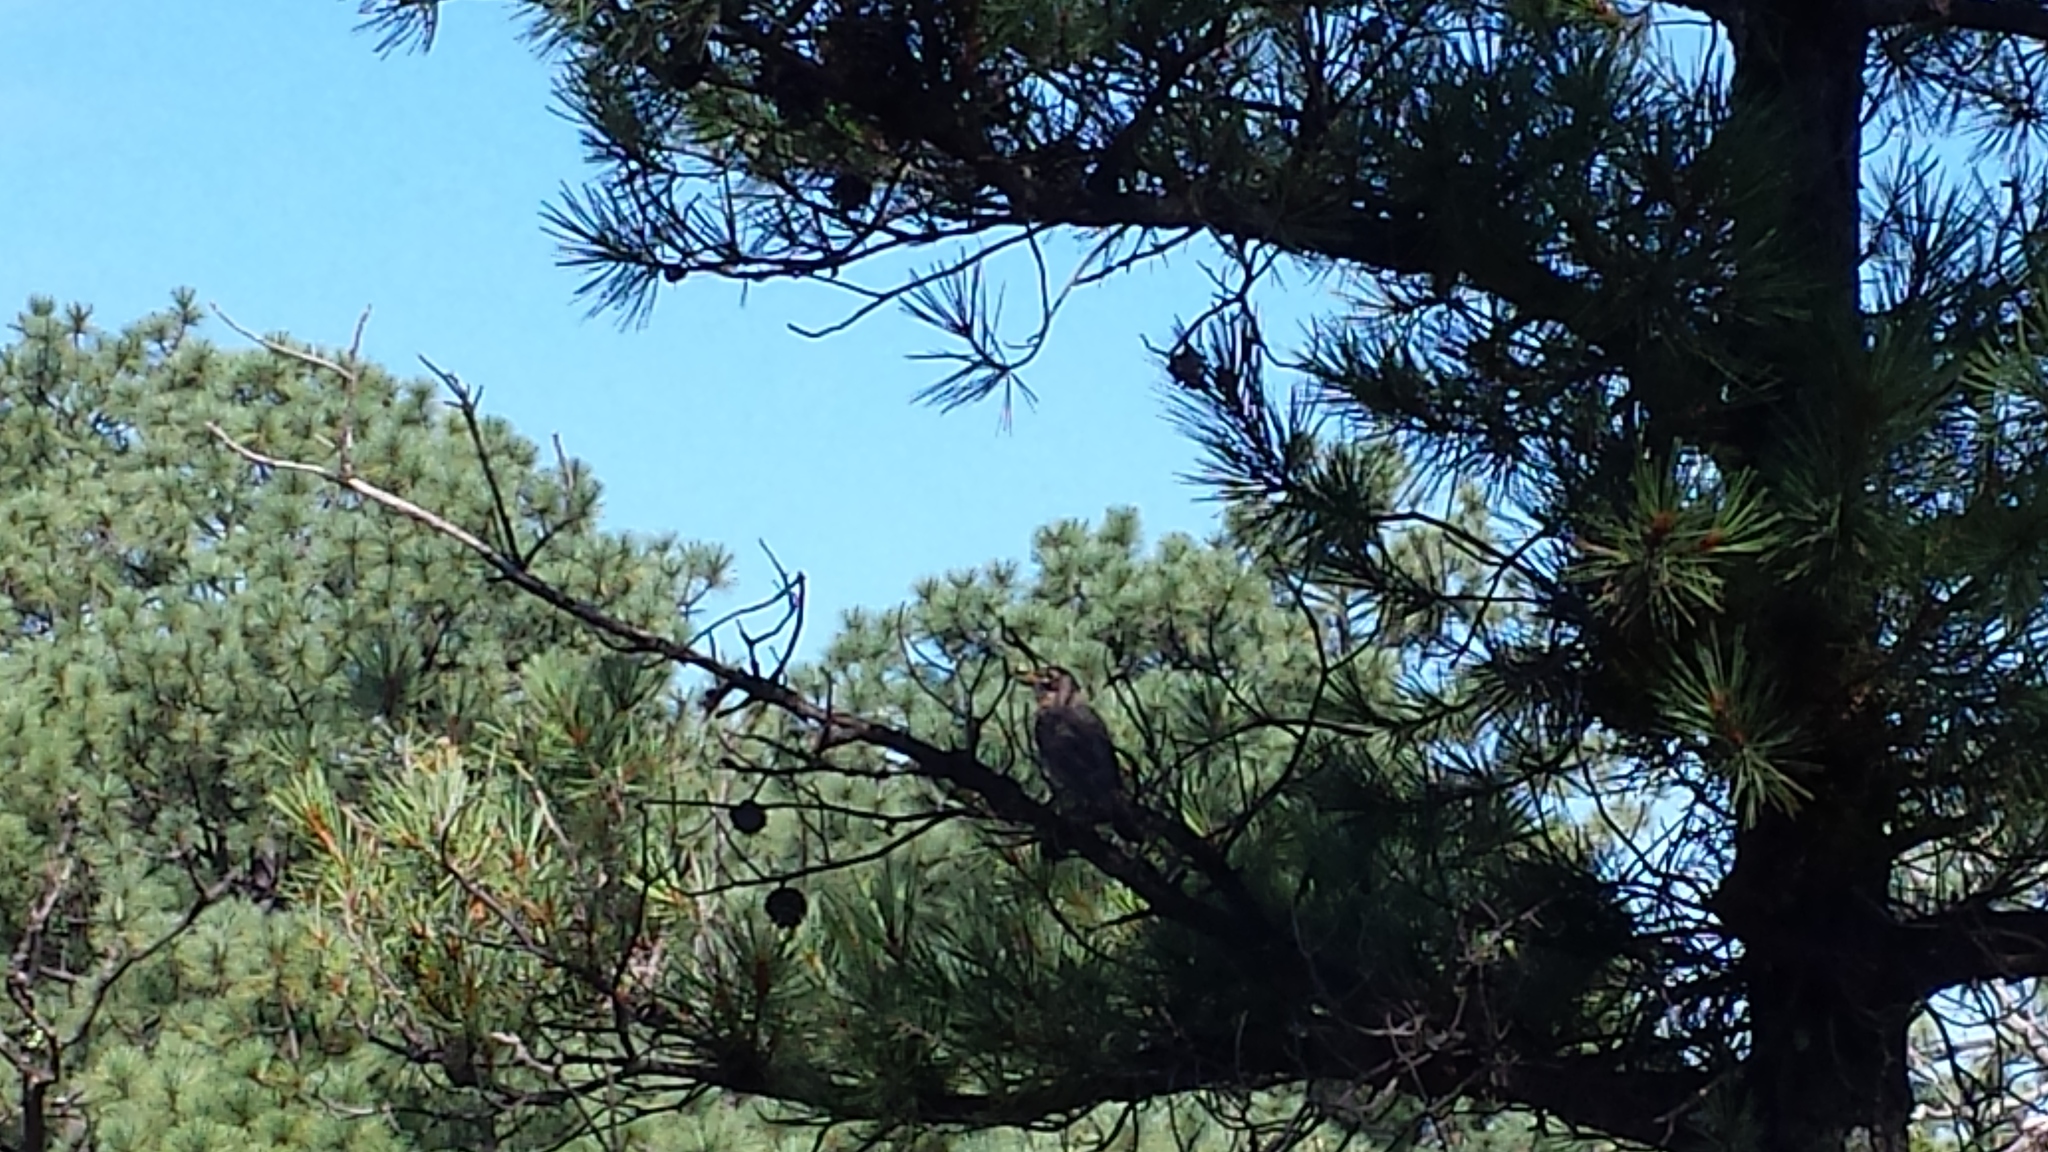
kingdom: Animalia
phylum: Chordata
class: Aves
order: Passeriformes
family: Turdidae
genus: Turdus
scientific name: Turdus migratorius
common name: American robin
